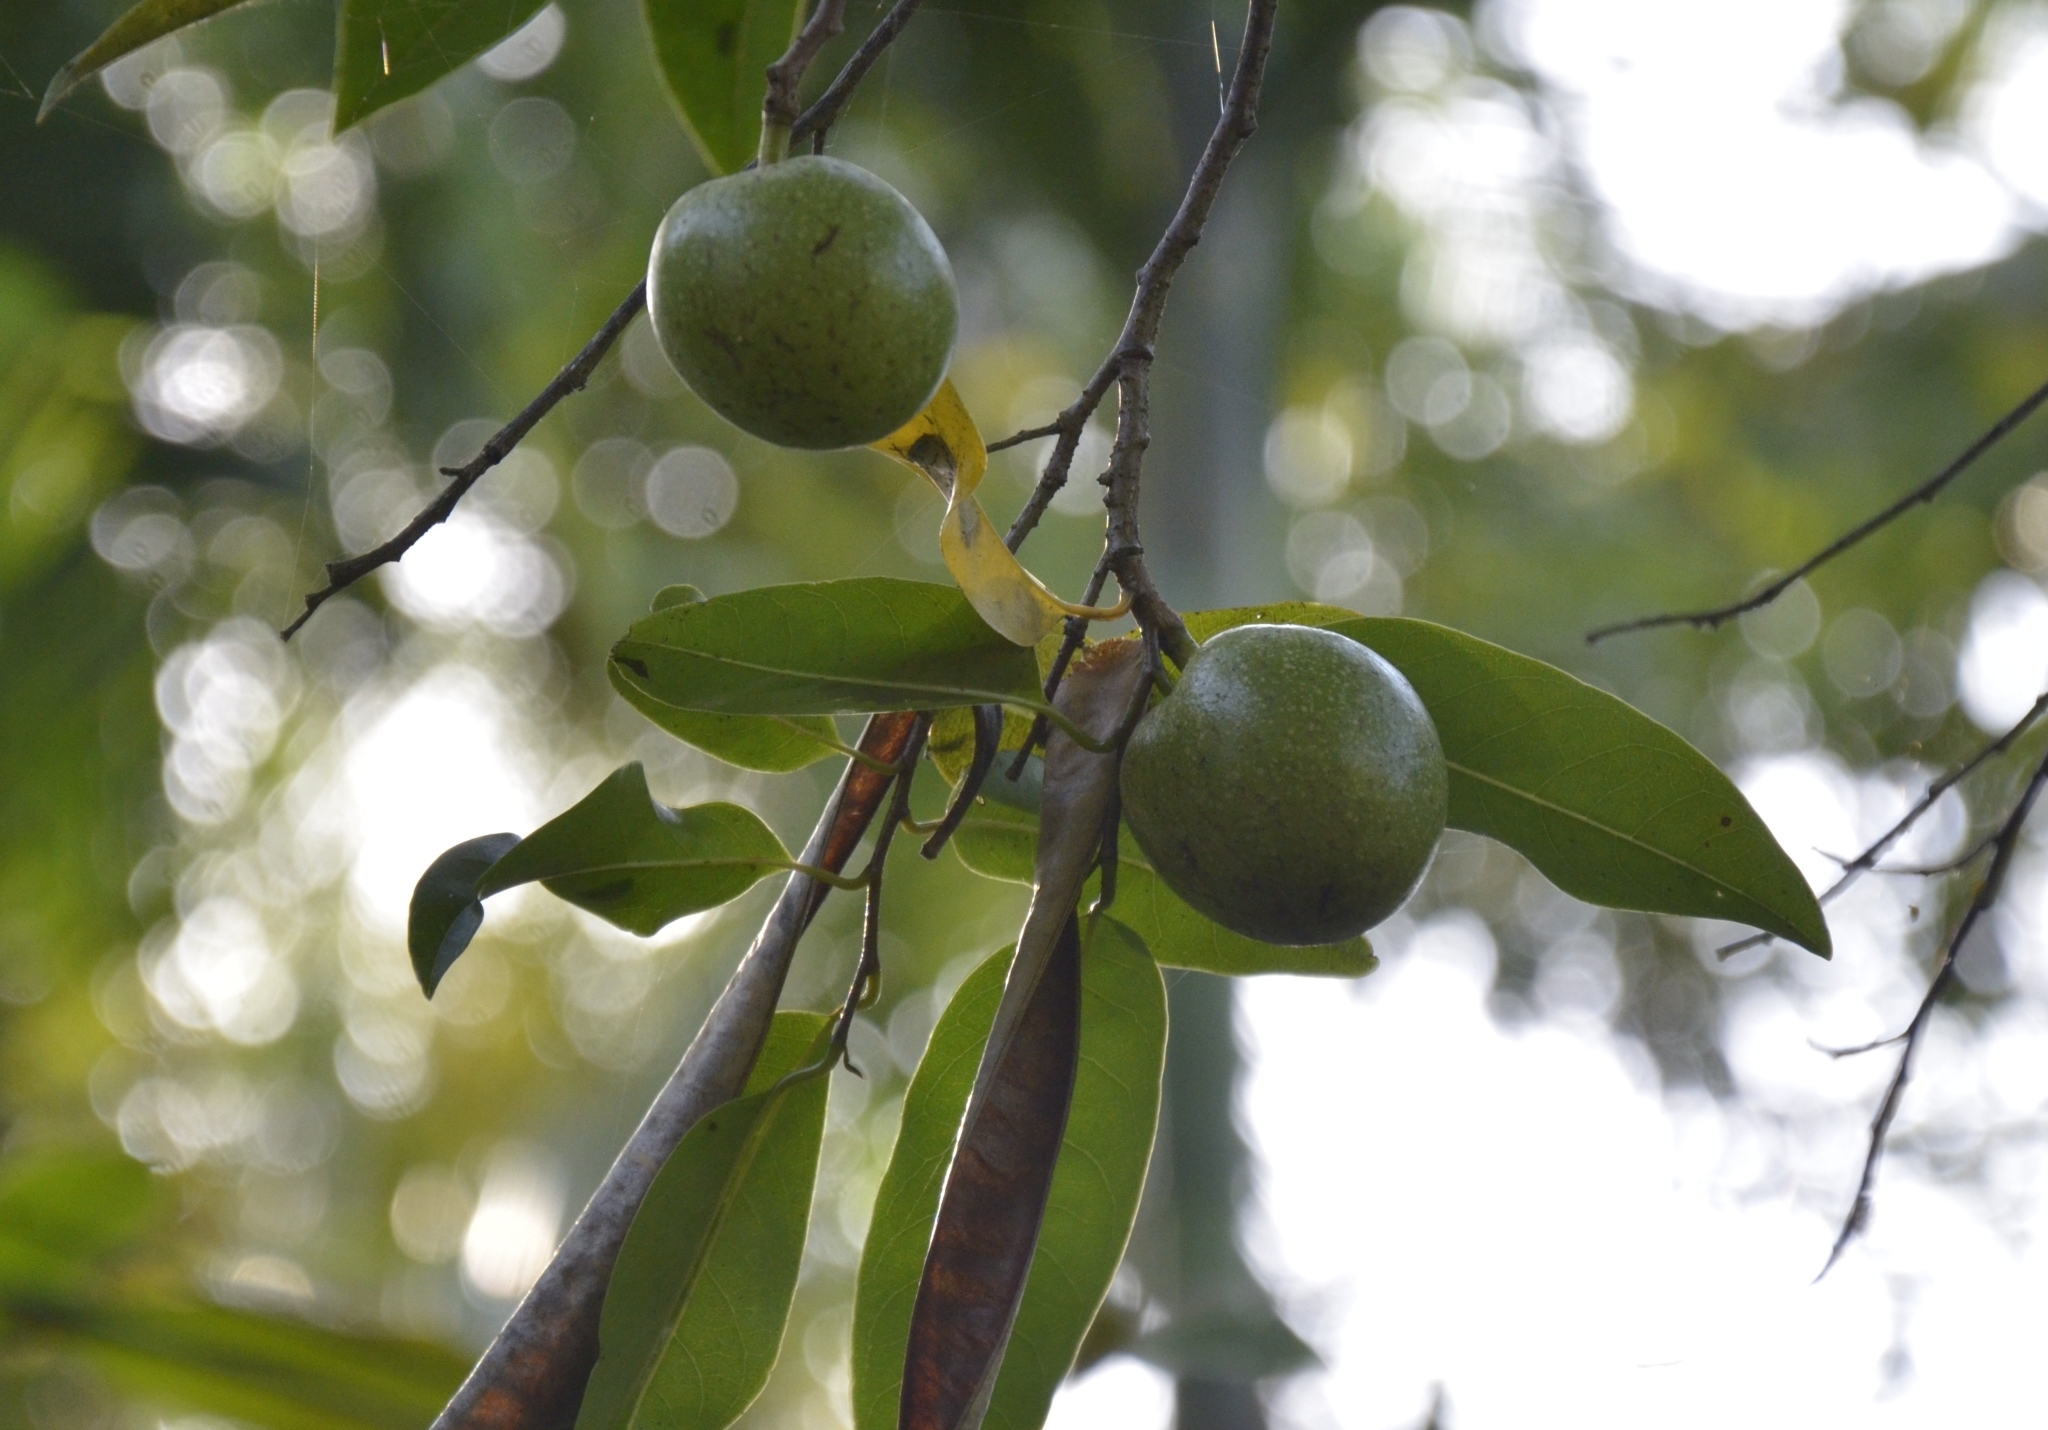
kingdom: Plantae
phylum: Tracheophyta
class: Magnoliopsida
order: Magnoliales
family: Annonaceae
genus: Annona
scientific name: Annona glabra
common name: Monkey apple
